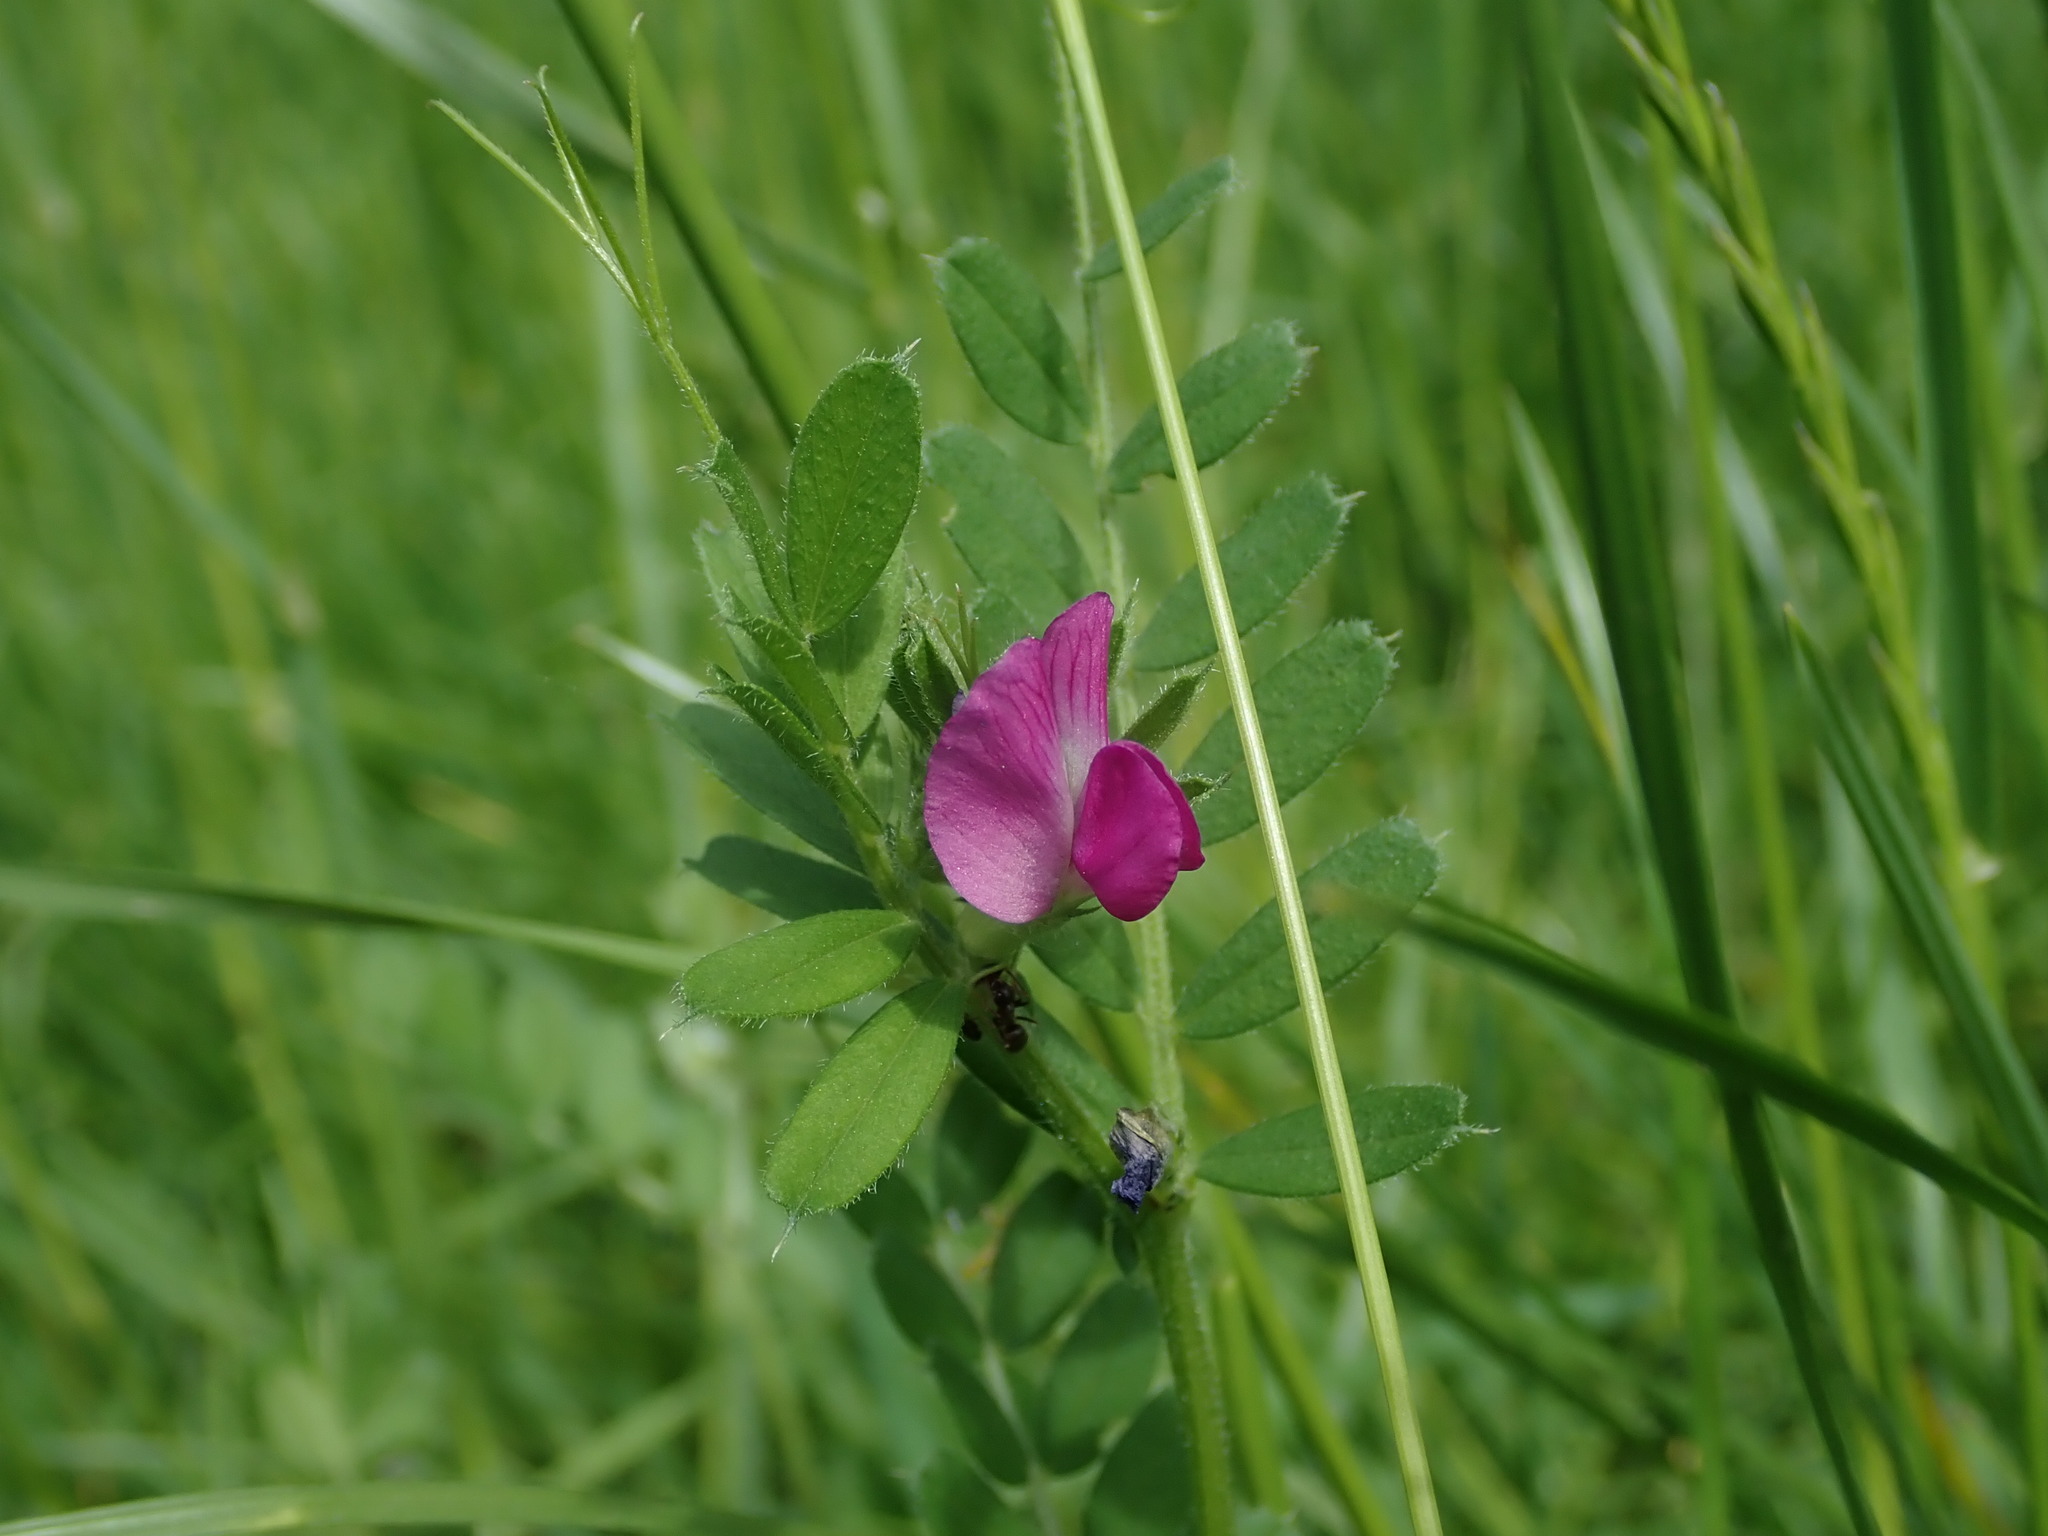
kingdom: Plantae
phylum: Tracheophyta
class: Magnoliopsida
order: Fabales
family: Fabaceae
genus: Vicia
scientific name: Vicia sativa
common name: Garden vetch
